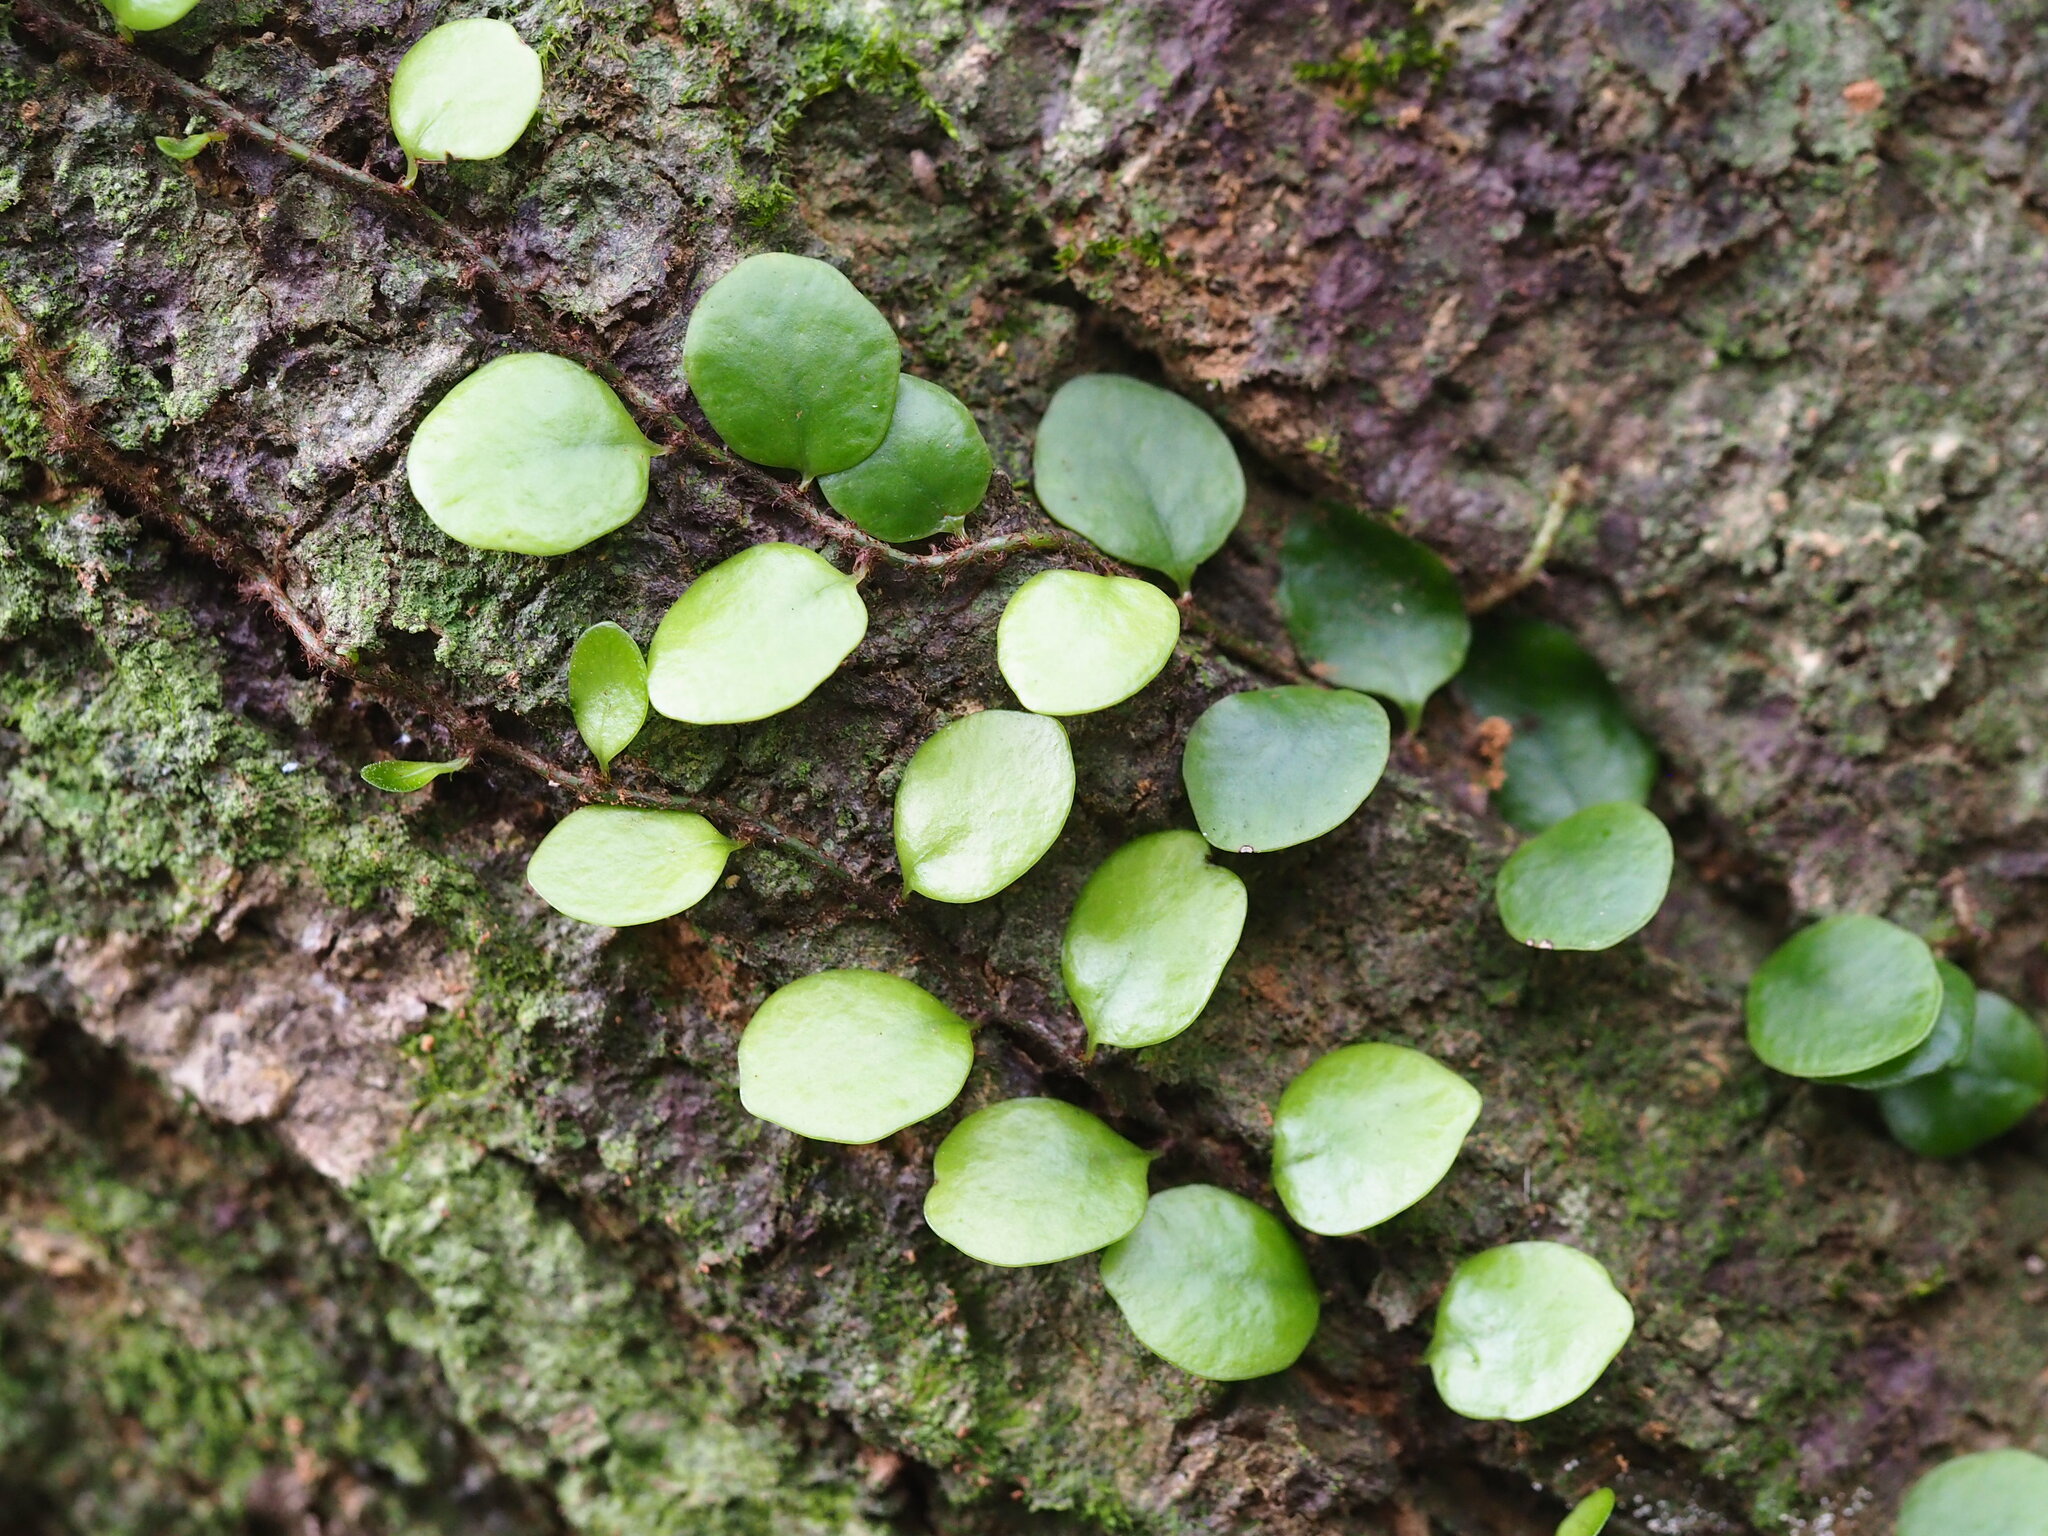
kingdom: Plantae
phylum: Tracheophyta
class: Polypodiopsida
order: Polypodiales
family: Polypodiaceae
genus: Lepisorus
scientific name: Lepisorus microphyllus
